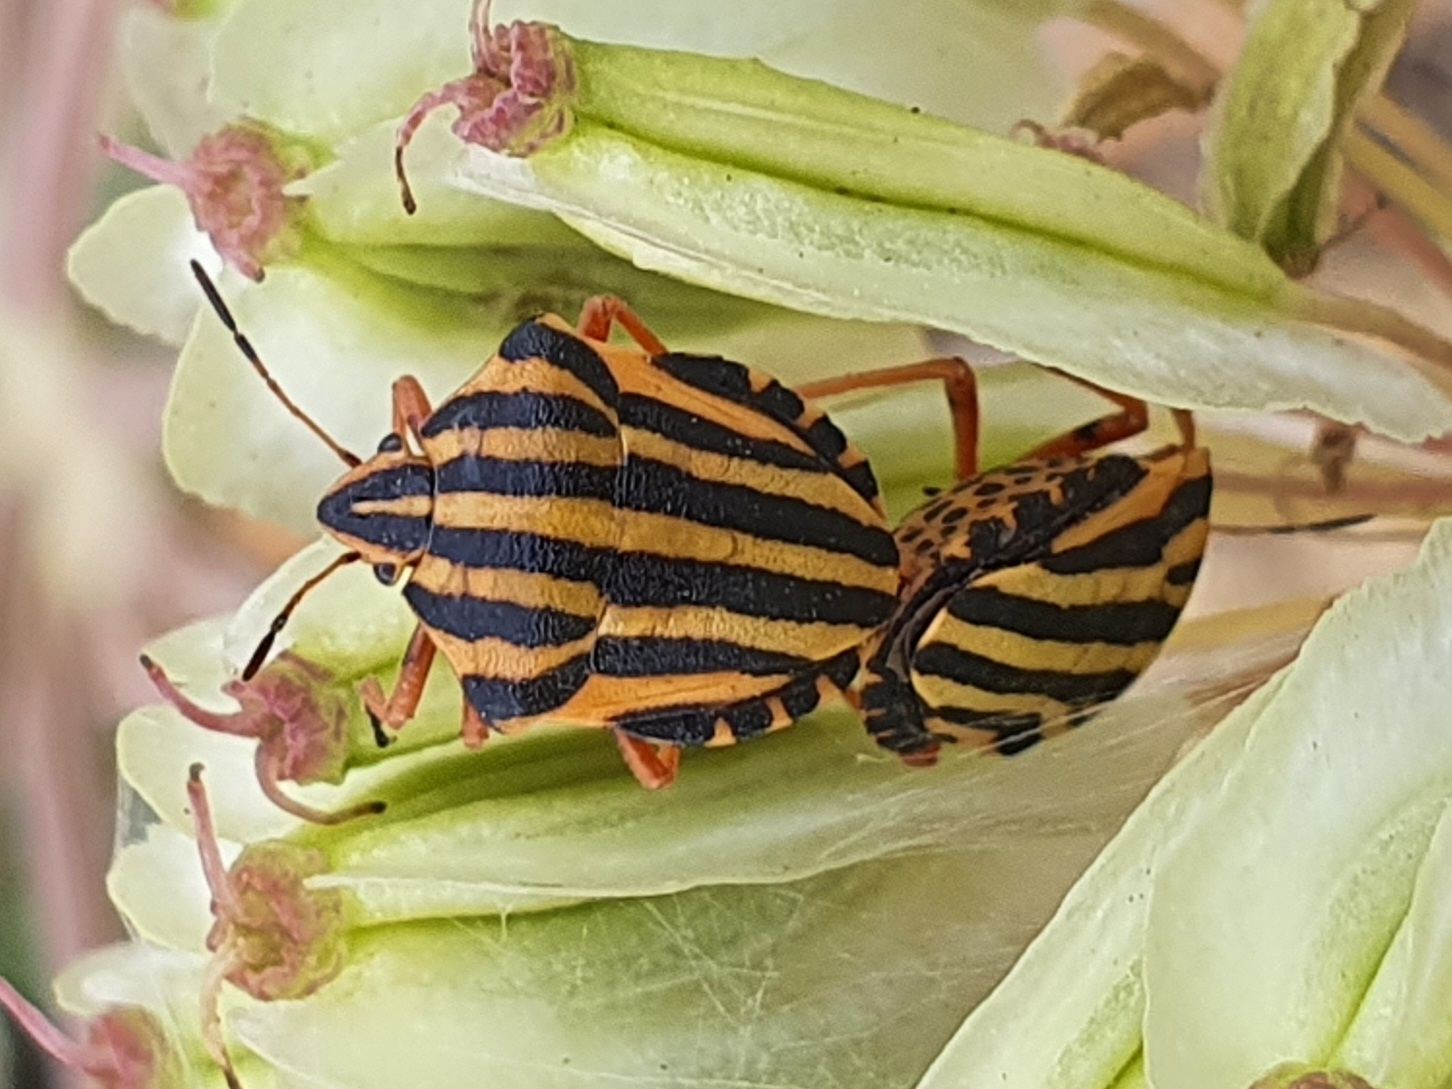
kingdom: Animalia
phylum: Arthropoda
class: Insecta
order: Hemiptera
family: Pentatomidae
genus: Graphosoma
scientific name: Graphosoma lineatum
